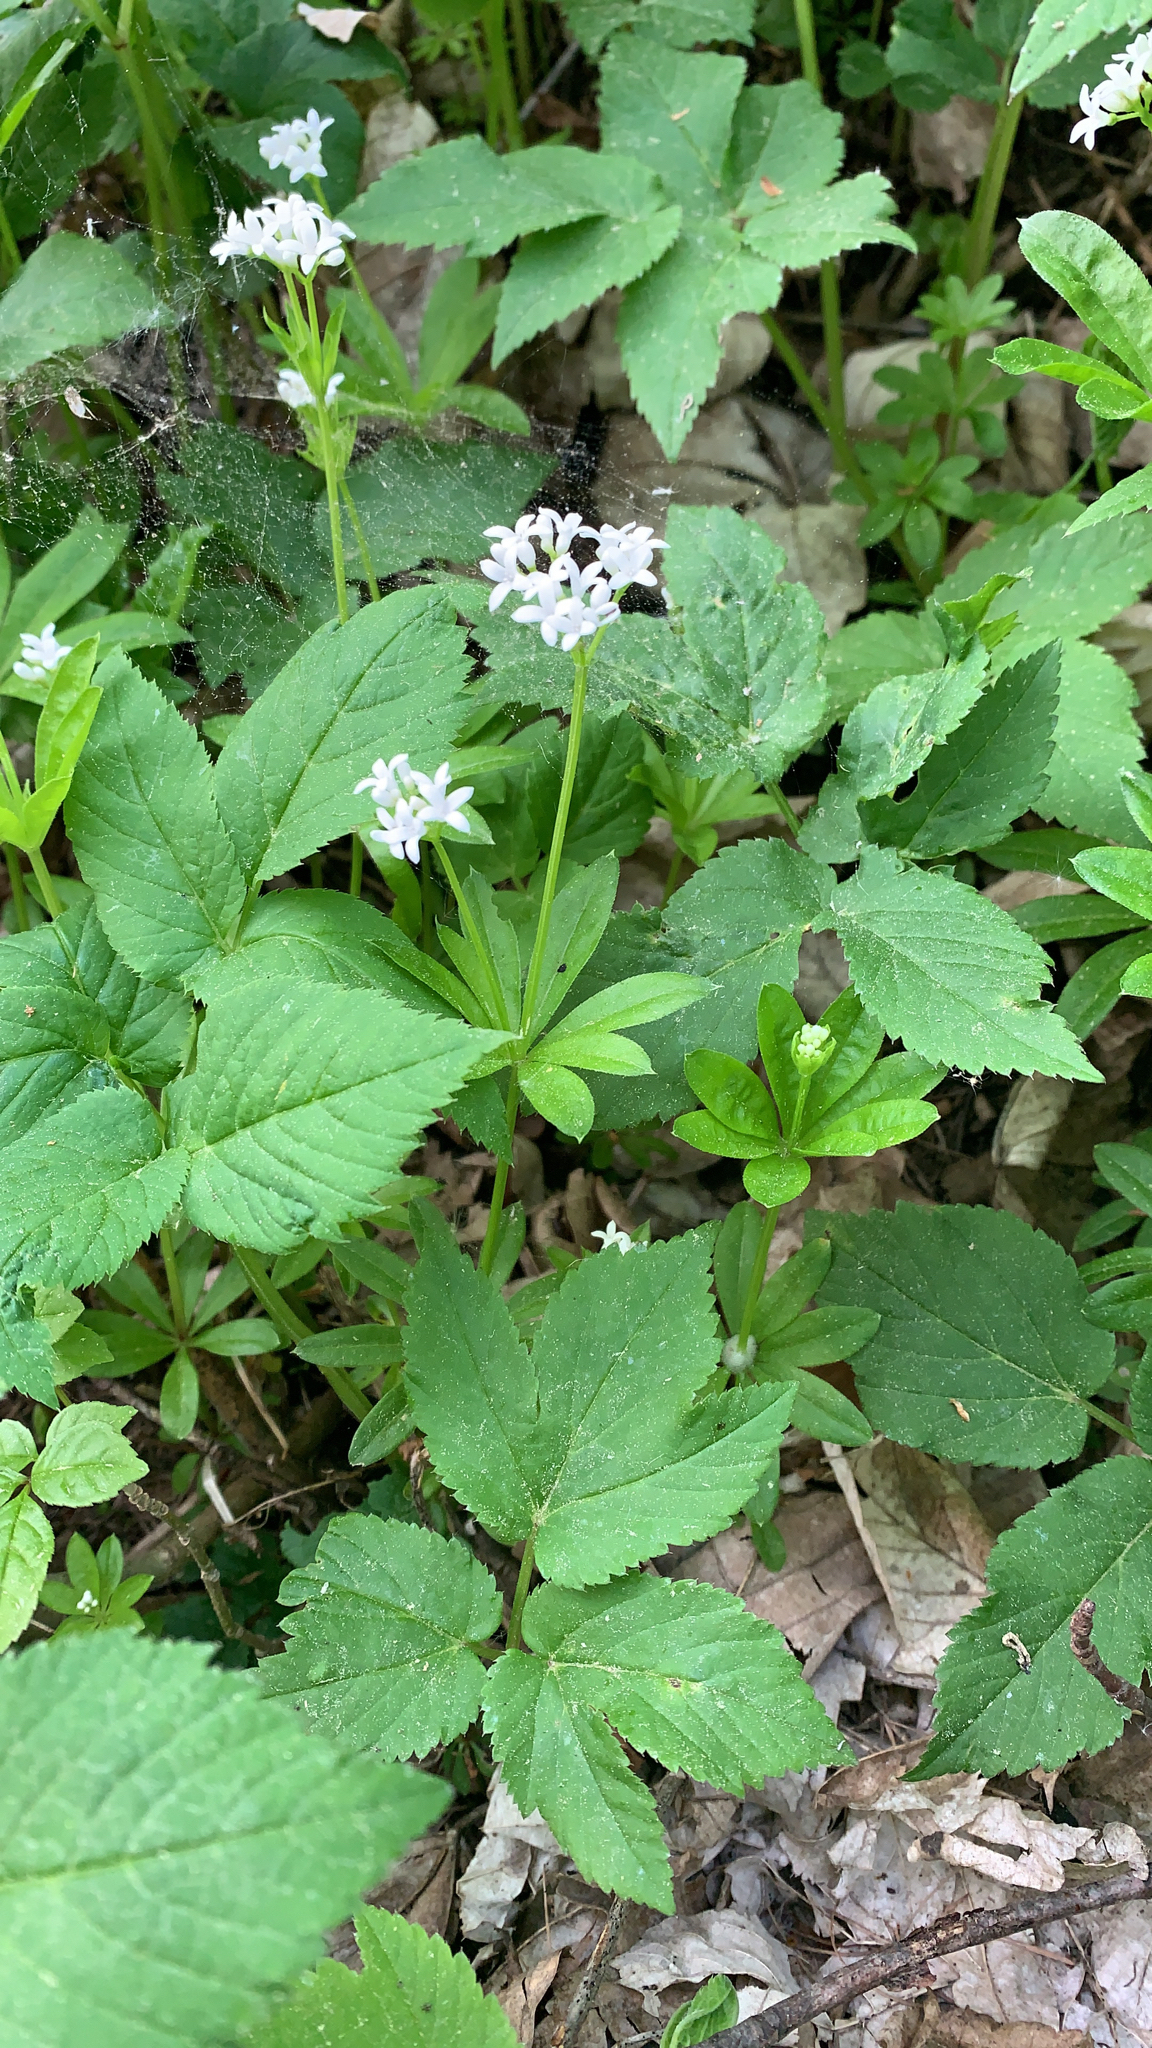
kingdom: Plantae
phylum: Tracheophyta
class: Magnoliopsida
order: Gentianales
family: Rubiaceae
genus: Galium
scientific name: Galium odoratum
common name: Sweet woodruff
